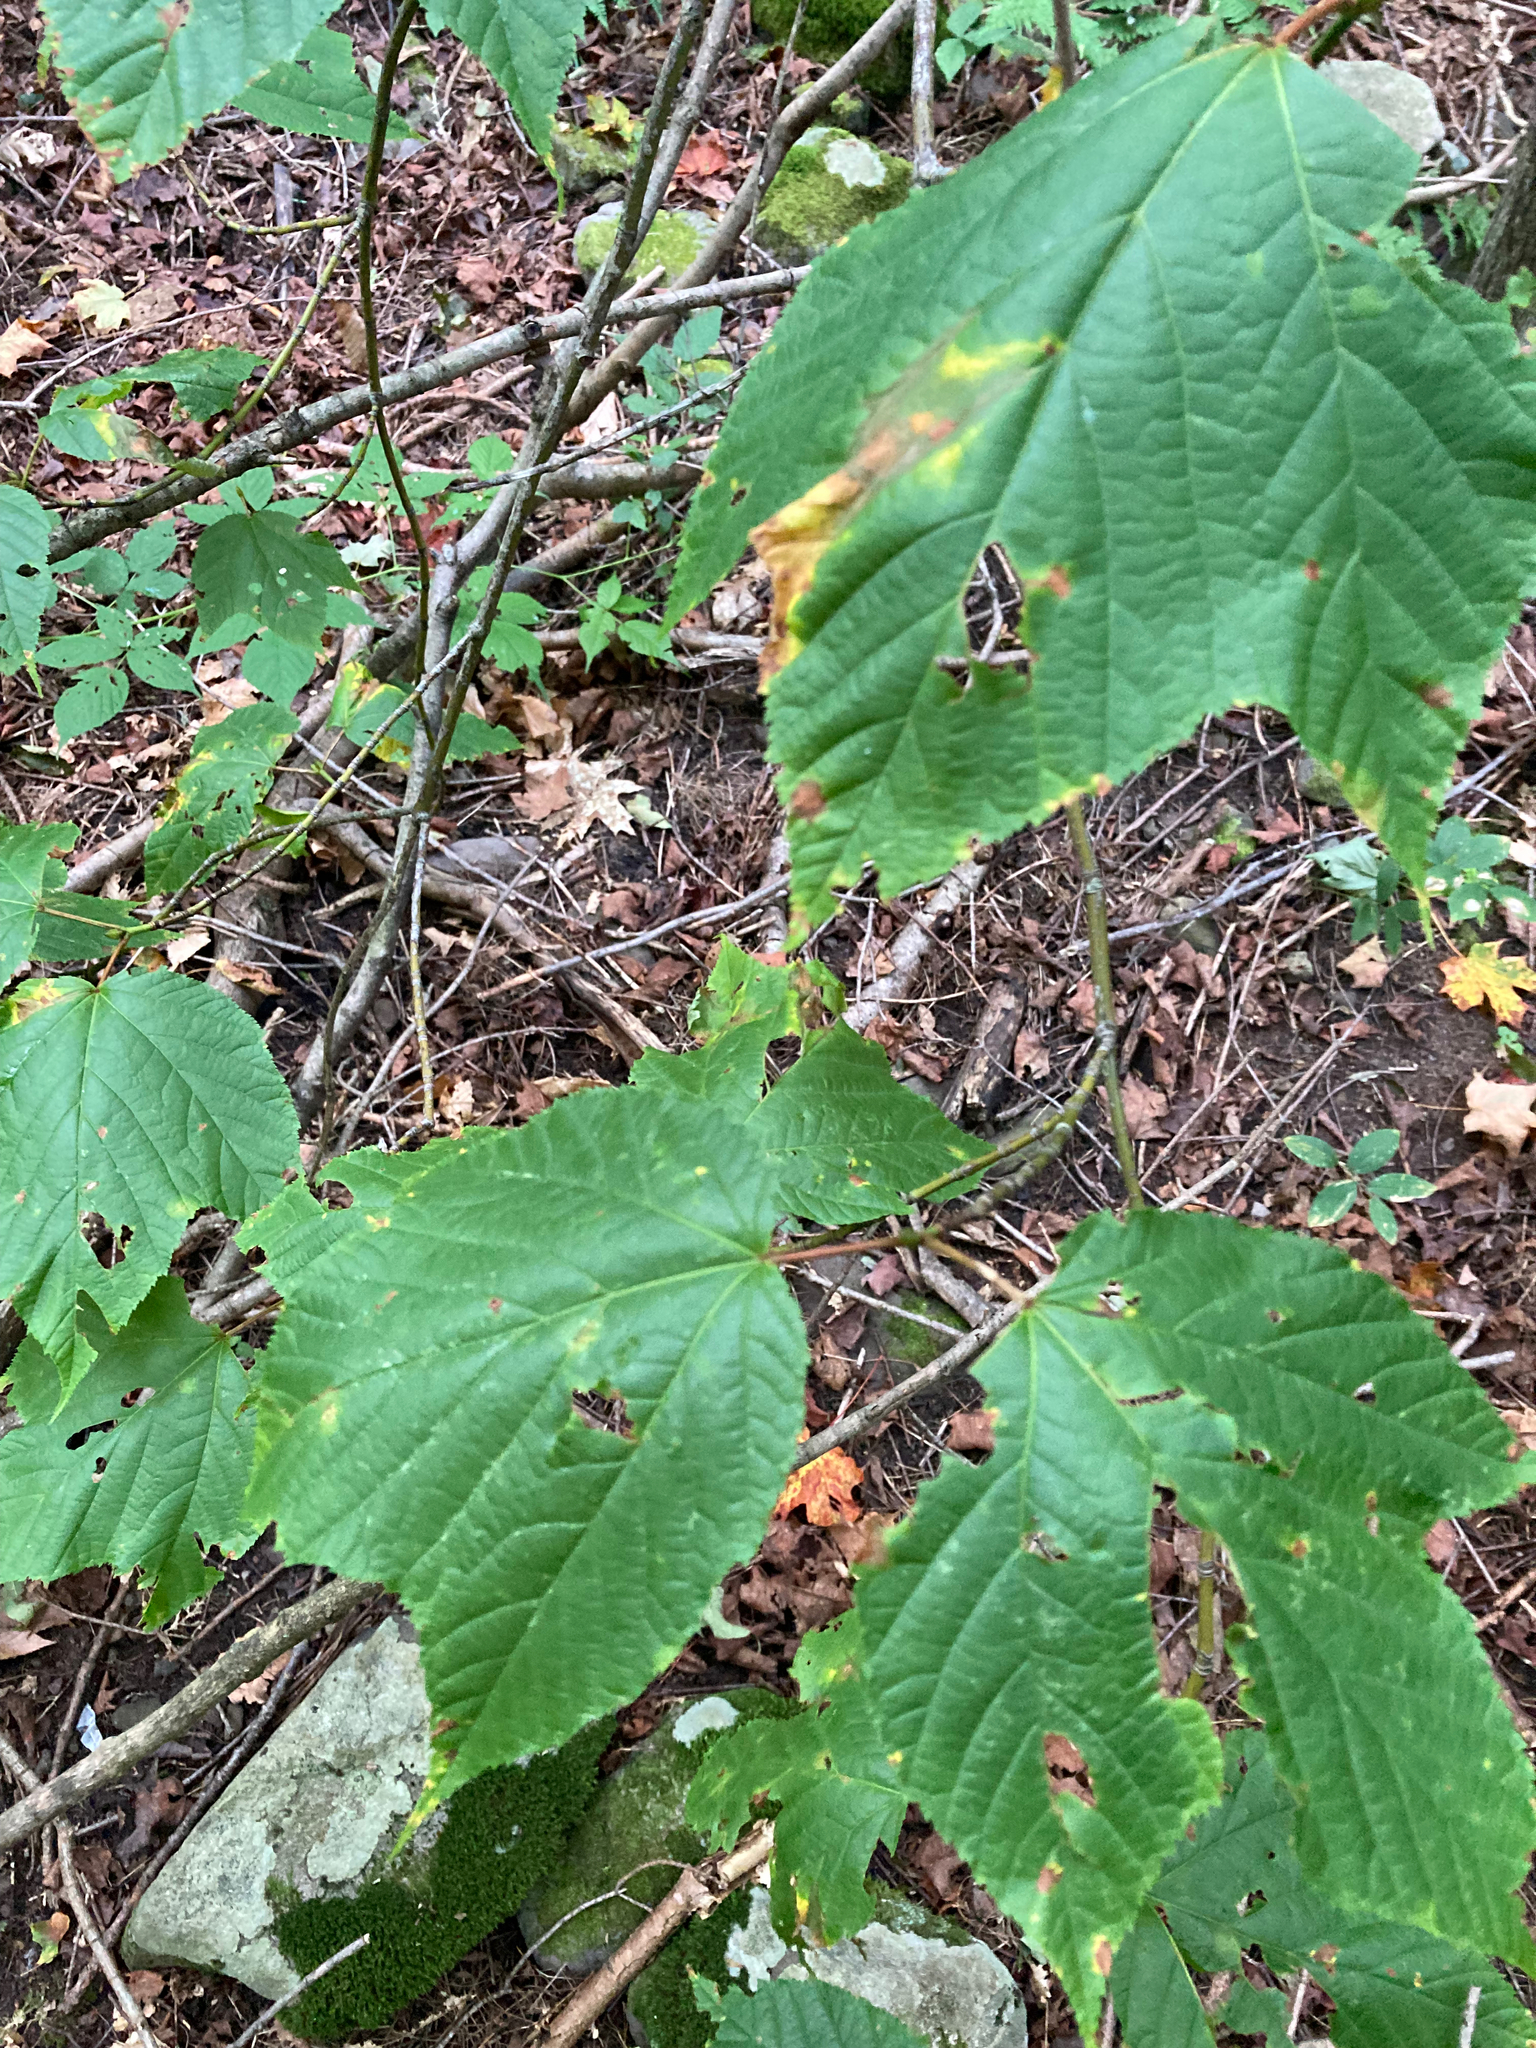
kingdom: Plantae
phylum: Tracheophyta
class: Magnoliopsida
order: Sapindales
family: Sapindaceae
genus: Acer
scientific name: Acer pensylvanicum
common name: Moosewood
